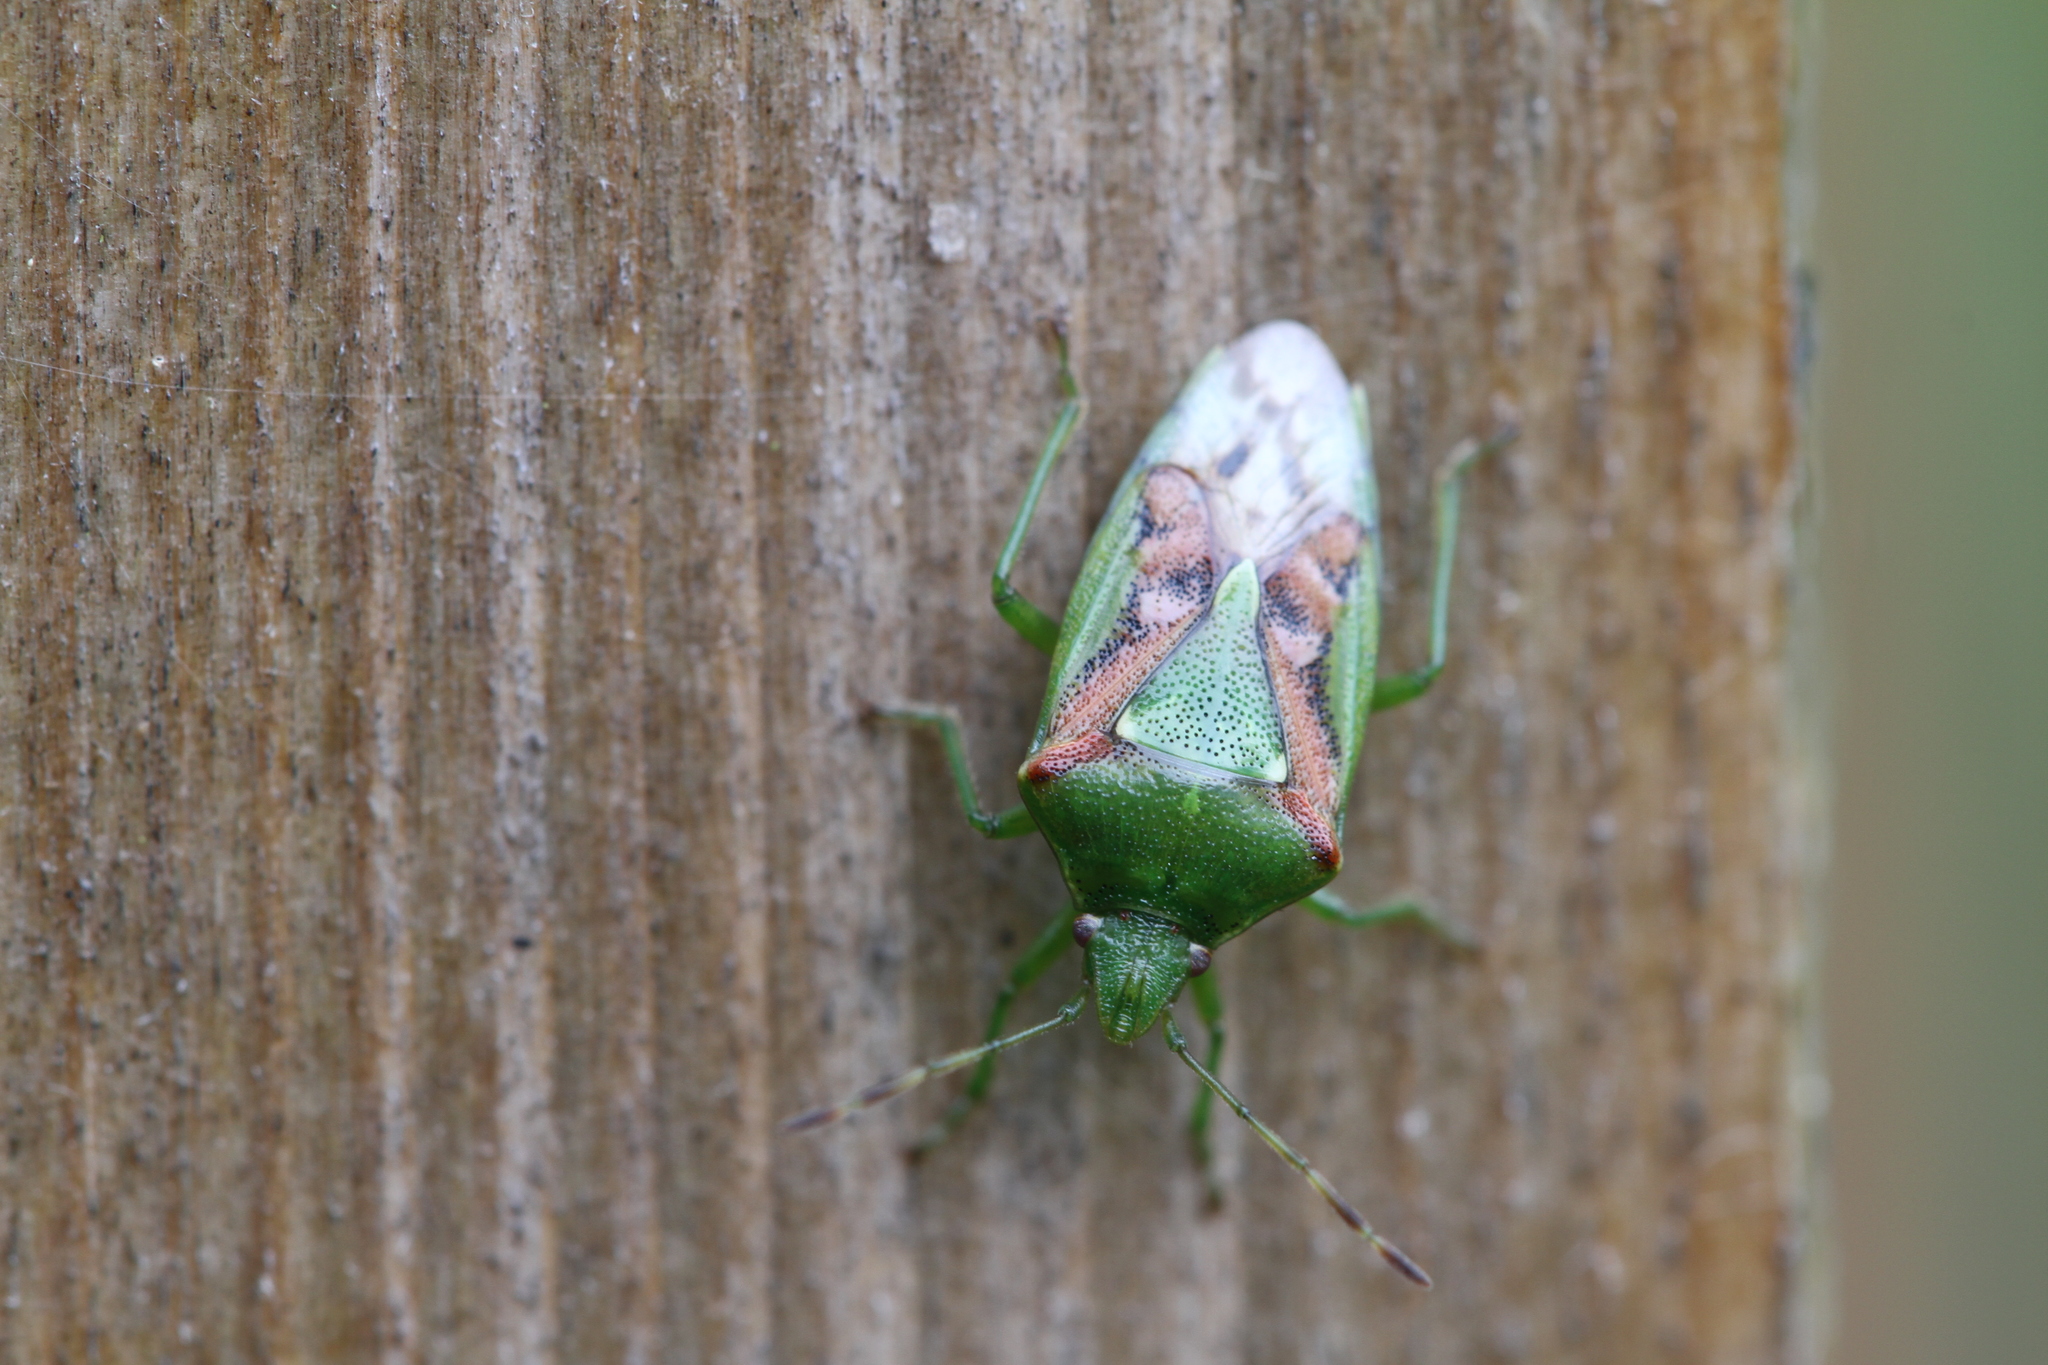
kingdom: Animalia
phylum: Arthropoda
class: Insecta
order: Hemiptera
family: Acanthosomatidae
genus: Cyphostethus
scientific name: Cyphostethus tristriatus
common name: Juniper shieldbug
